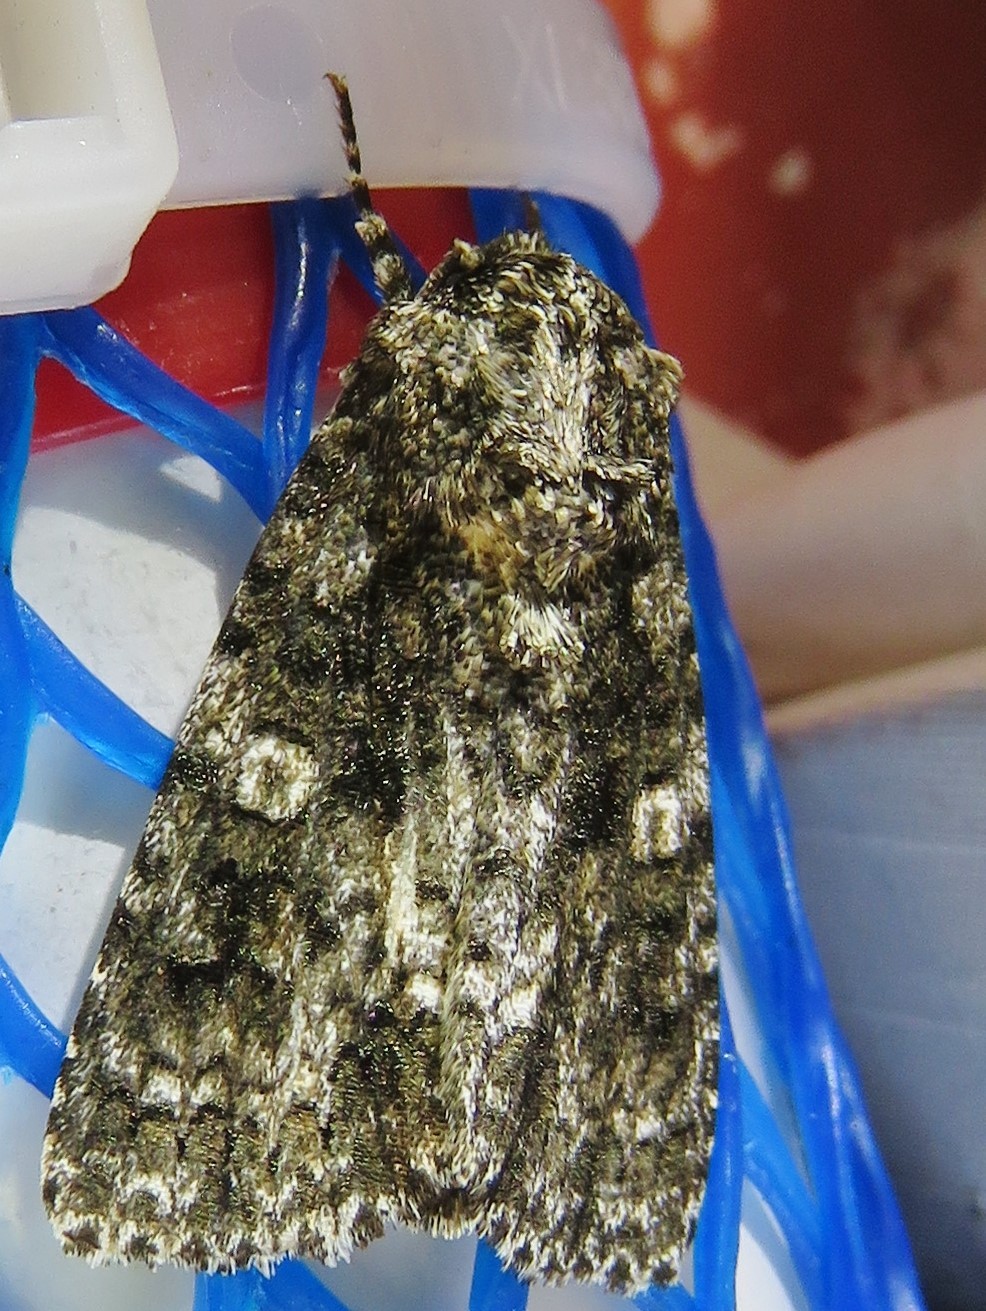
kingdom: Animalia
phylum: Arthropoda
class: Insecta
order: Lepidoptera
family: Noctuidae
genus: Acronicta
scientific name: Acronicta afflicta
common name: Afflicted dagger moth
